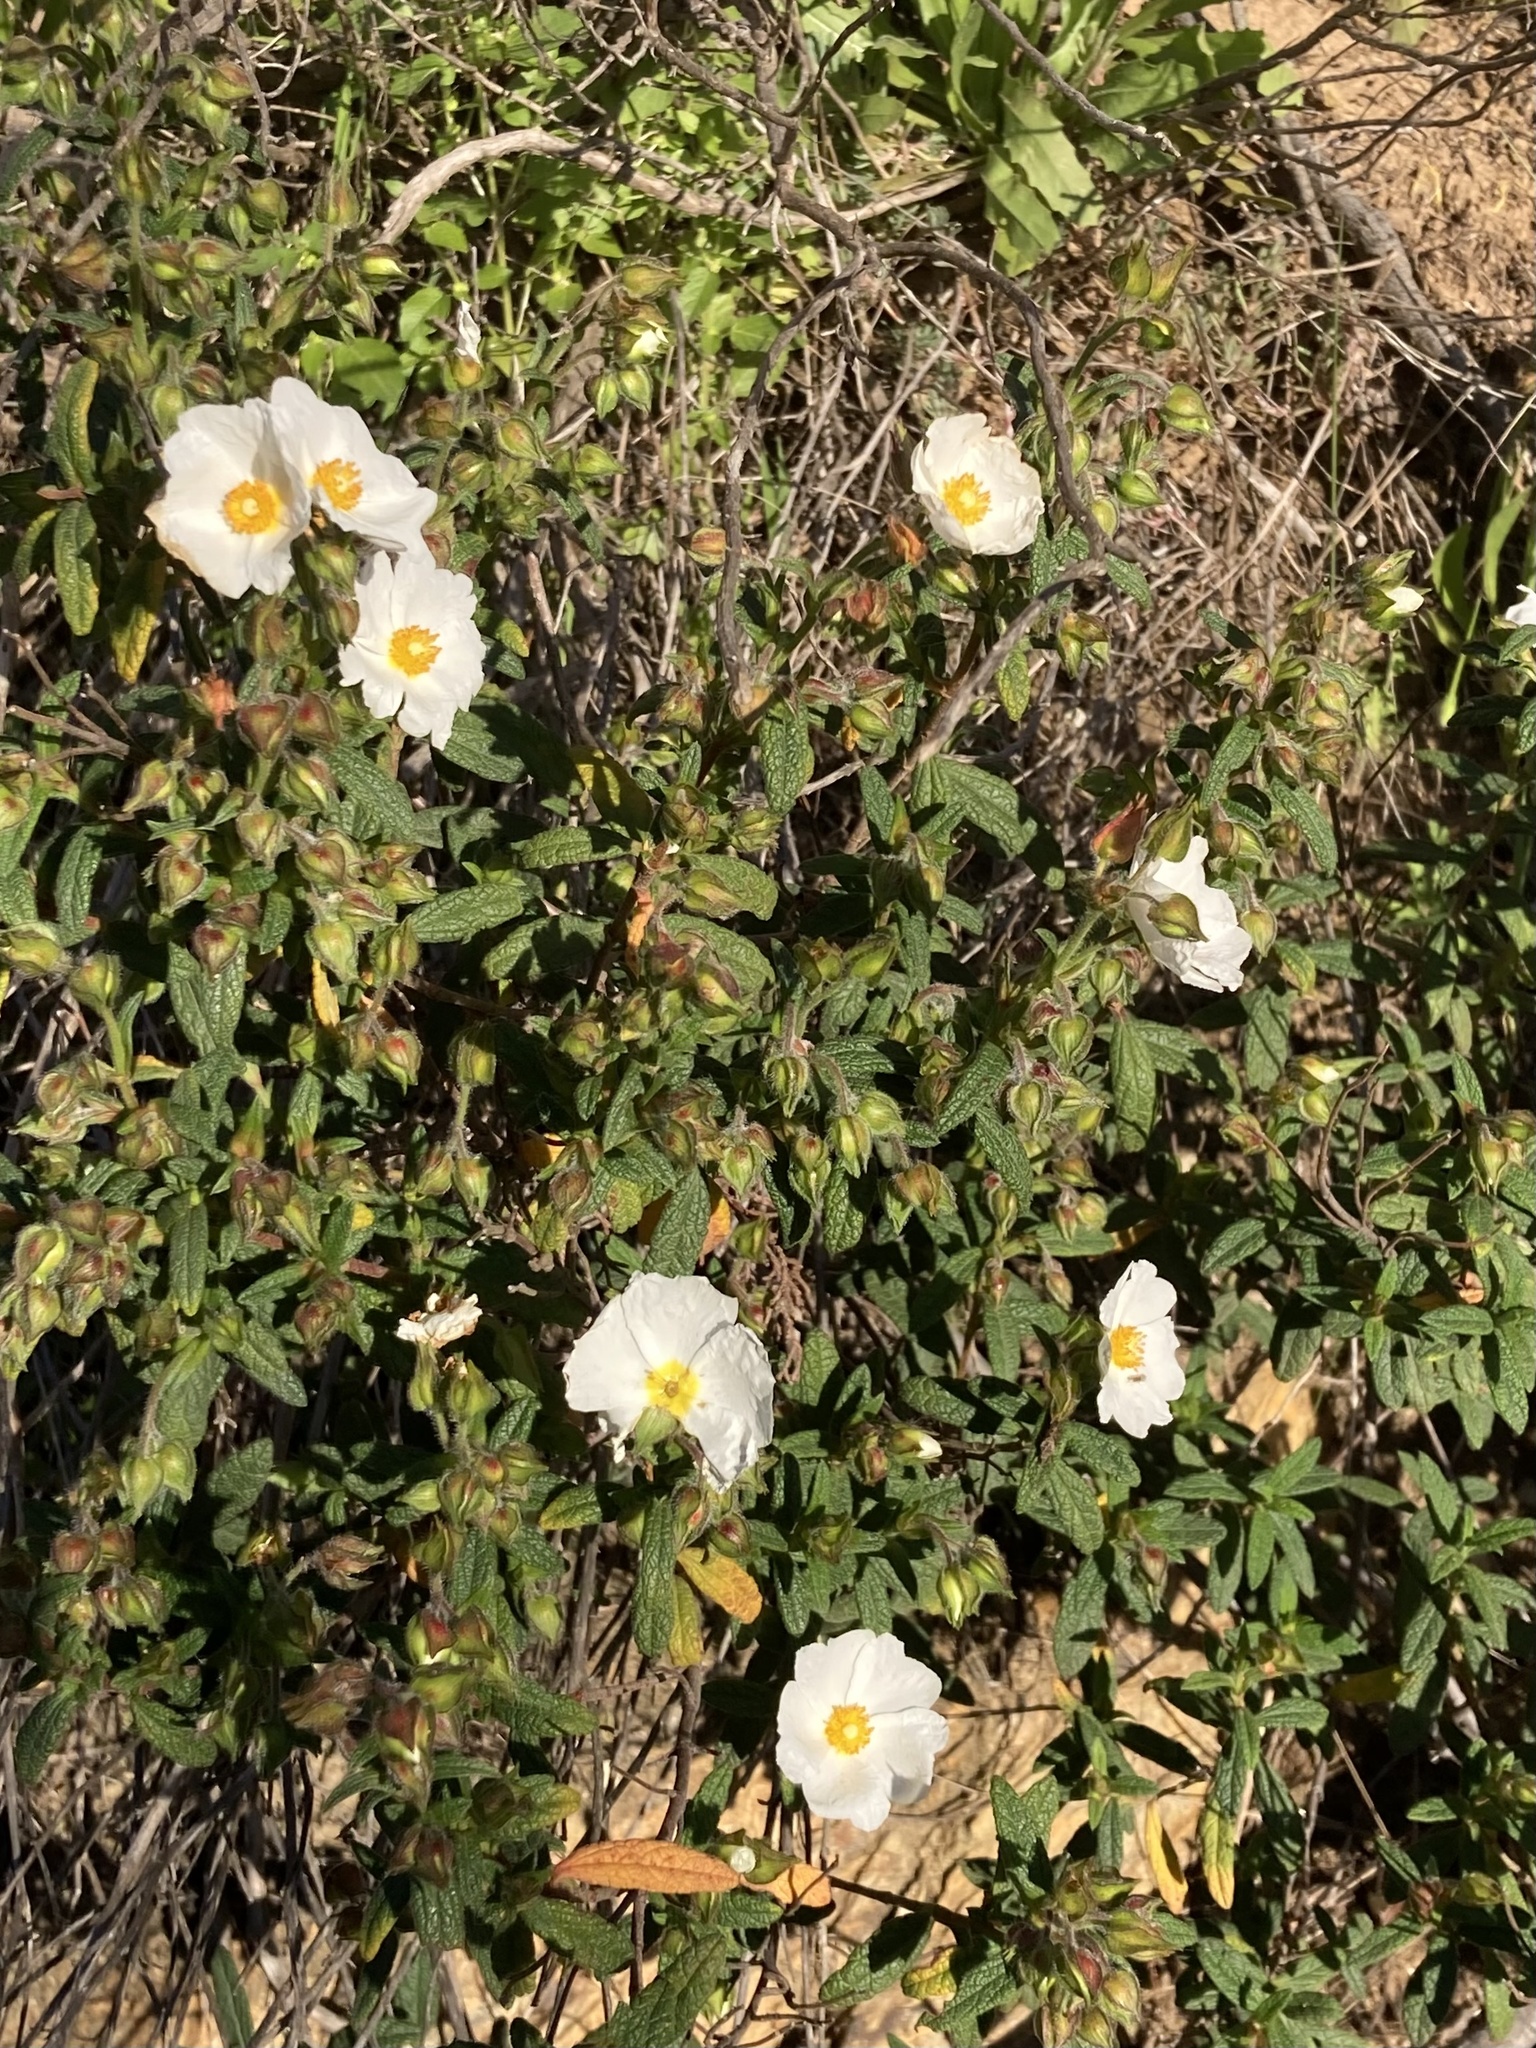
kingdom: Plantae
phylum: Tracheophyta
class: Magnoliopsida
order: Malvales
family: Cistaceae
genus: Cistus
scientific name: Cistus inflatus
